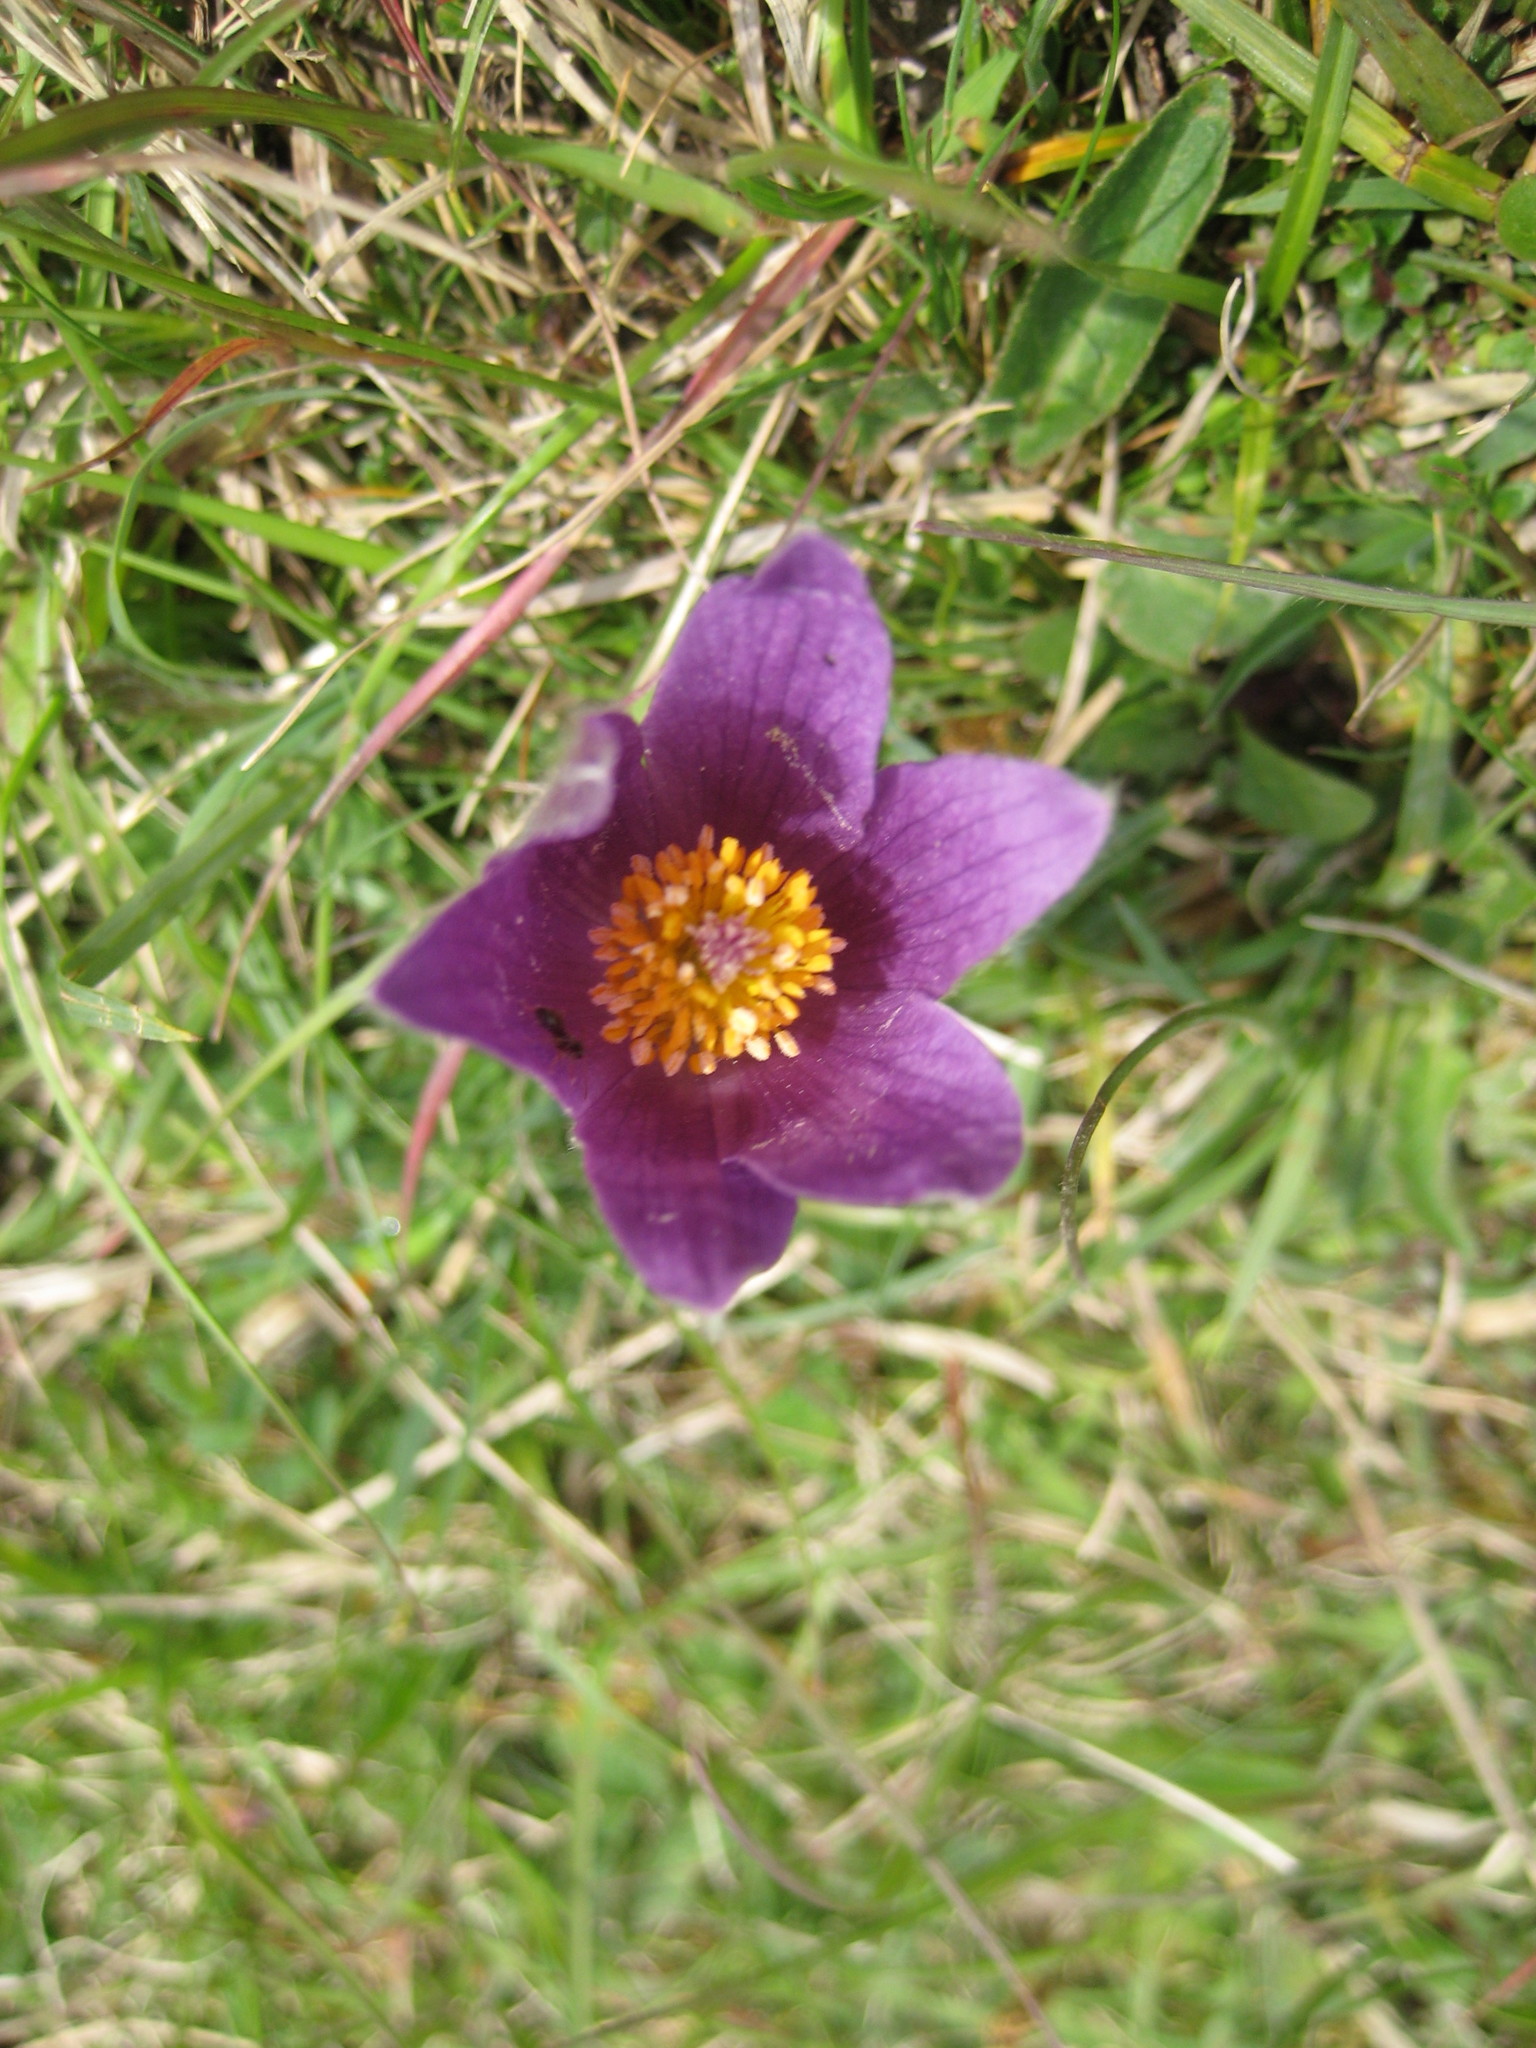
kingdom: Plantae
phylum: Tracheophyta
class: Magnoliopsida
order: Ranunculales
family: Ranunculaceae
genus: Pulsatilla
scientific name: Pulsatilla vulgaris
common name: Pasqueflower
